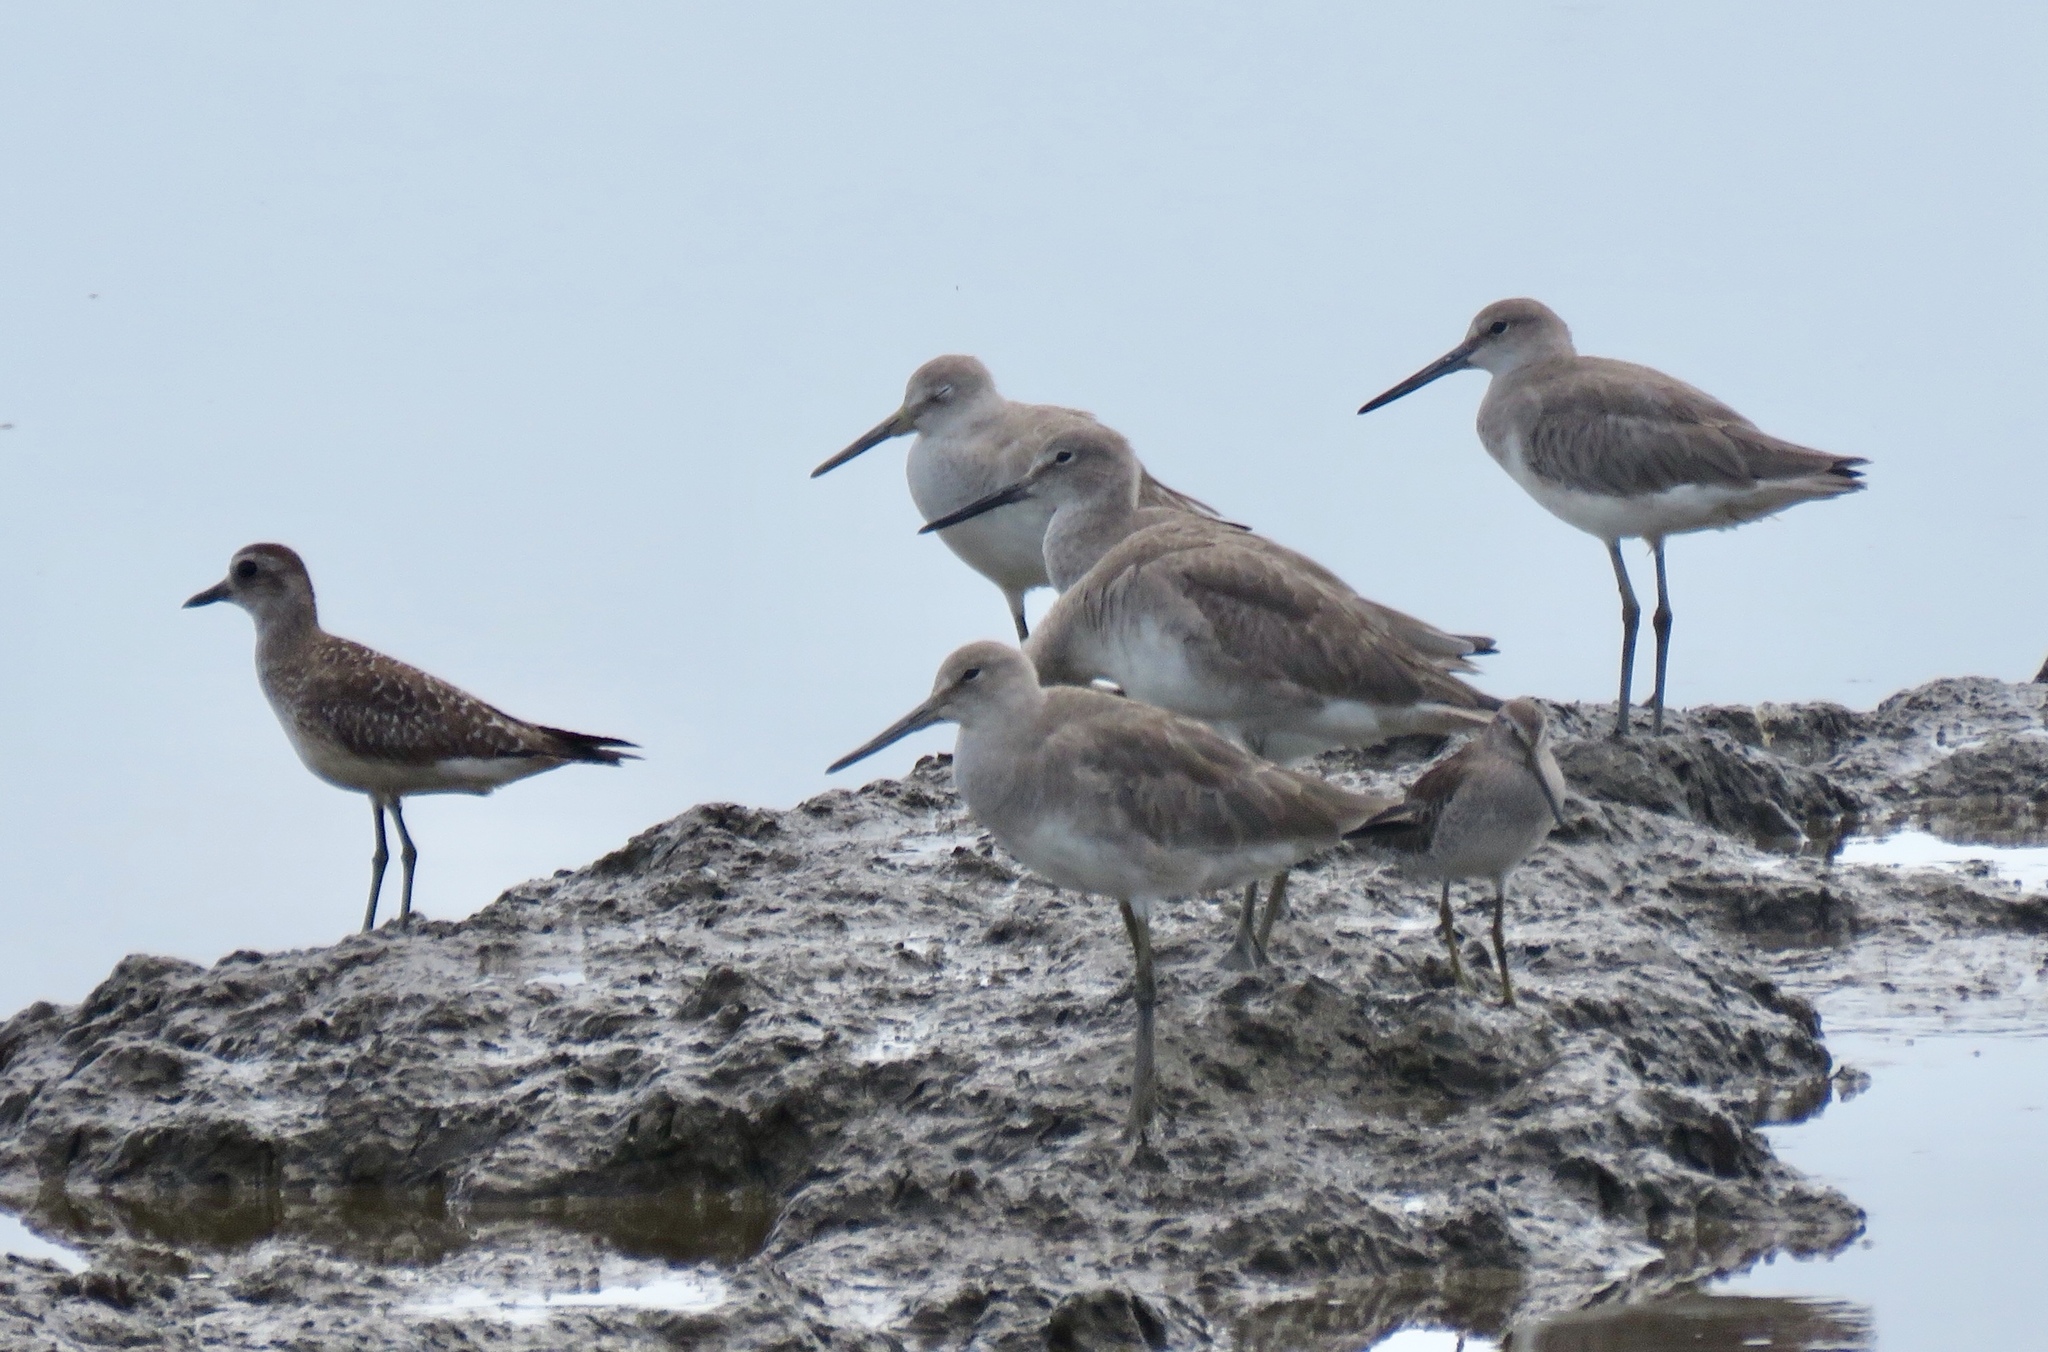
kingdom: Animalia
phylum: Chordata
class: Aves
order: Charadriiformes
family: Charadriidae
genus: Pluvialis
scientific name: Pluvialis squatarola
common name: Grey plover
